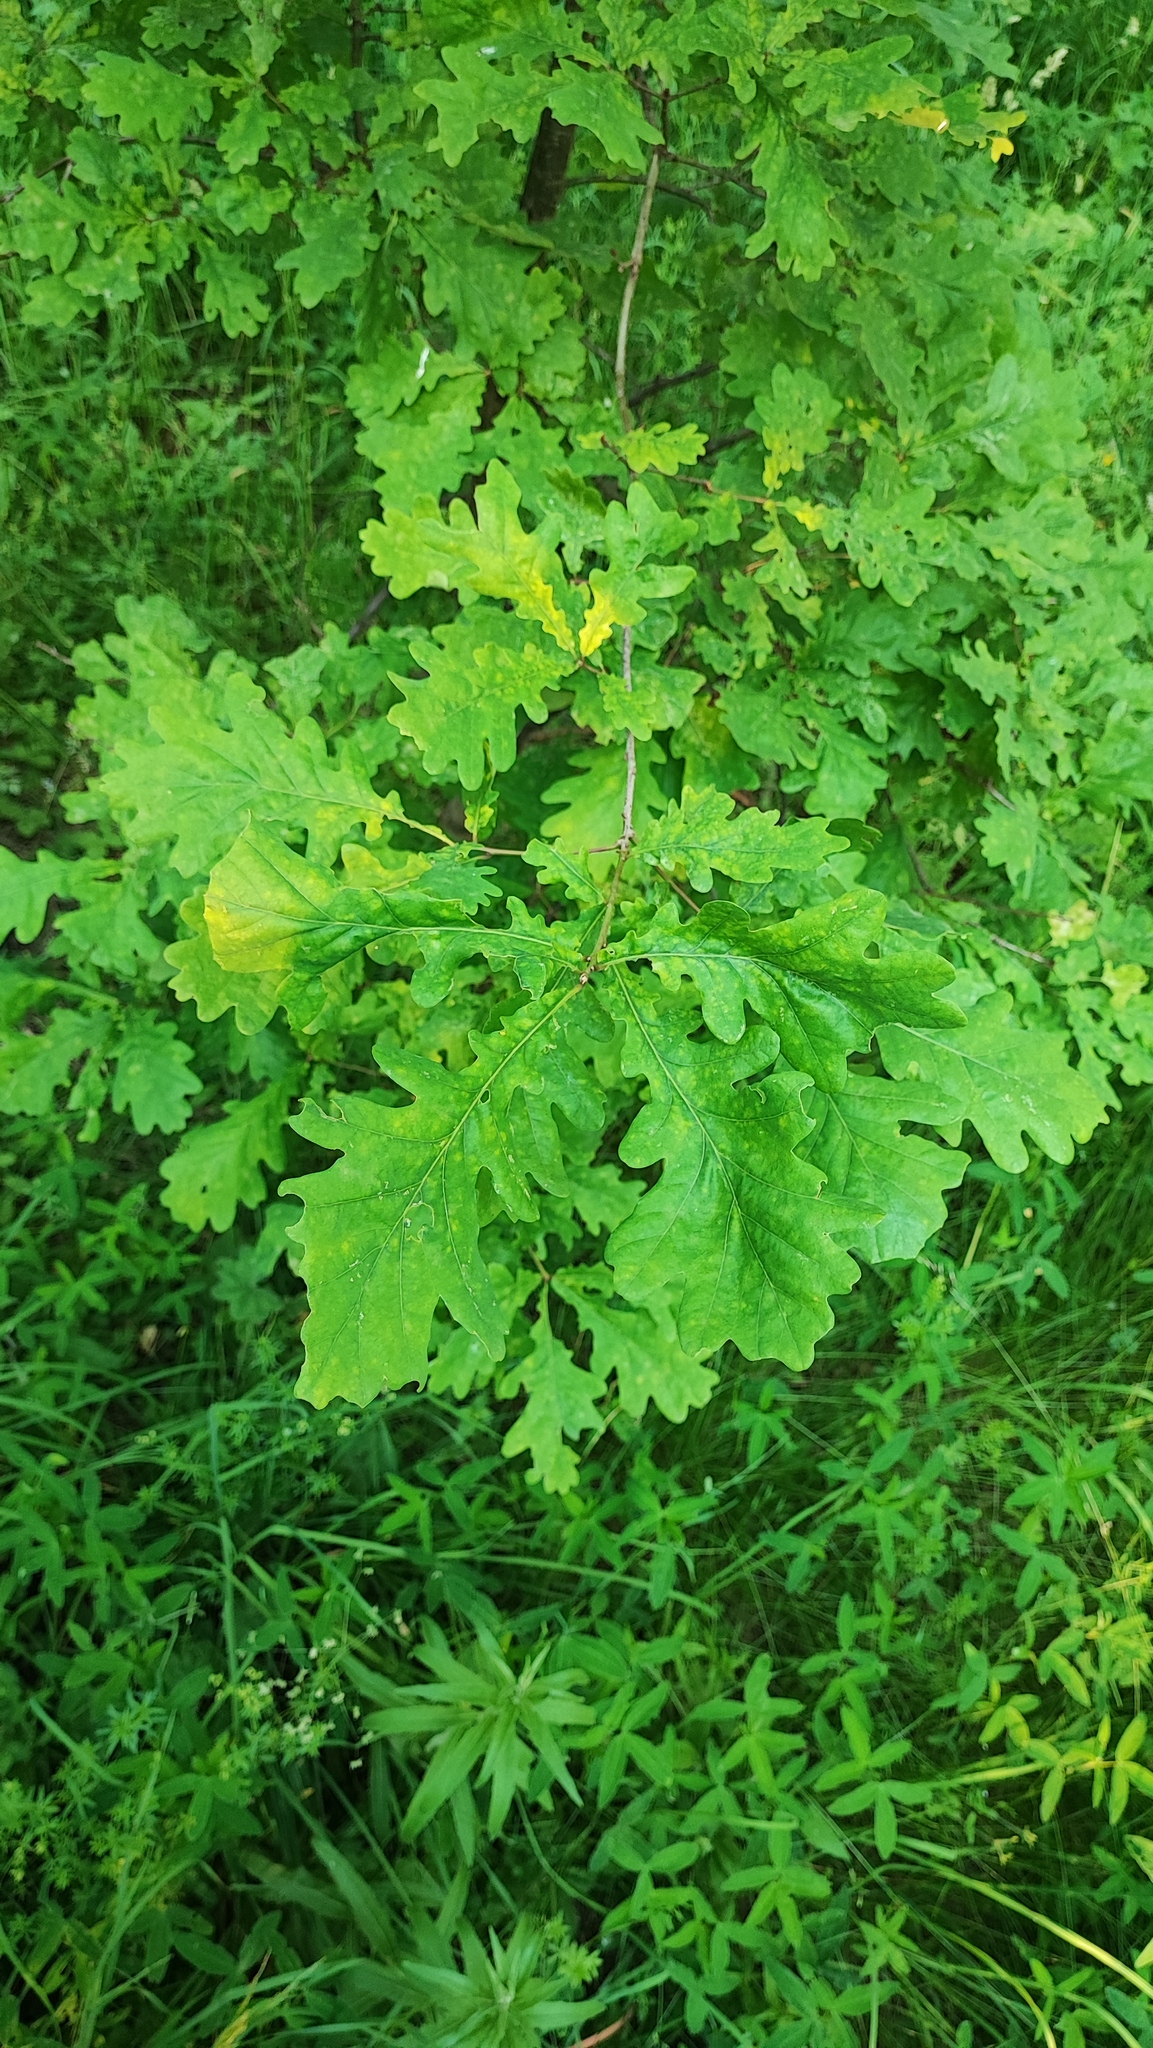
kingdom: Plantae
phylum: Tracheophyta
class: Magnoliopsida
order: Fagales
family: Fagaceae
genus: Quercus
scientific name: Quercus robur
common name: Pedunculate oak
